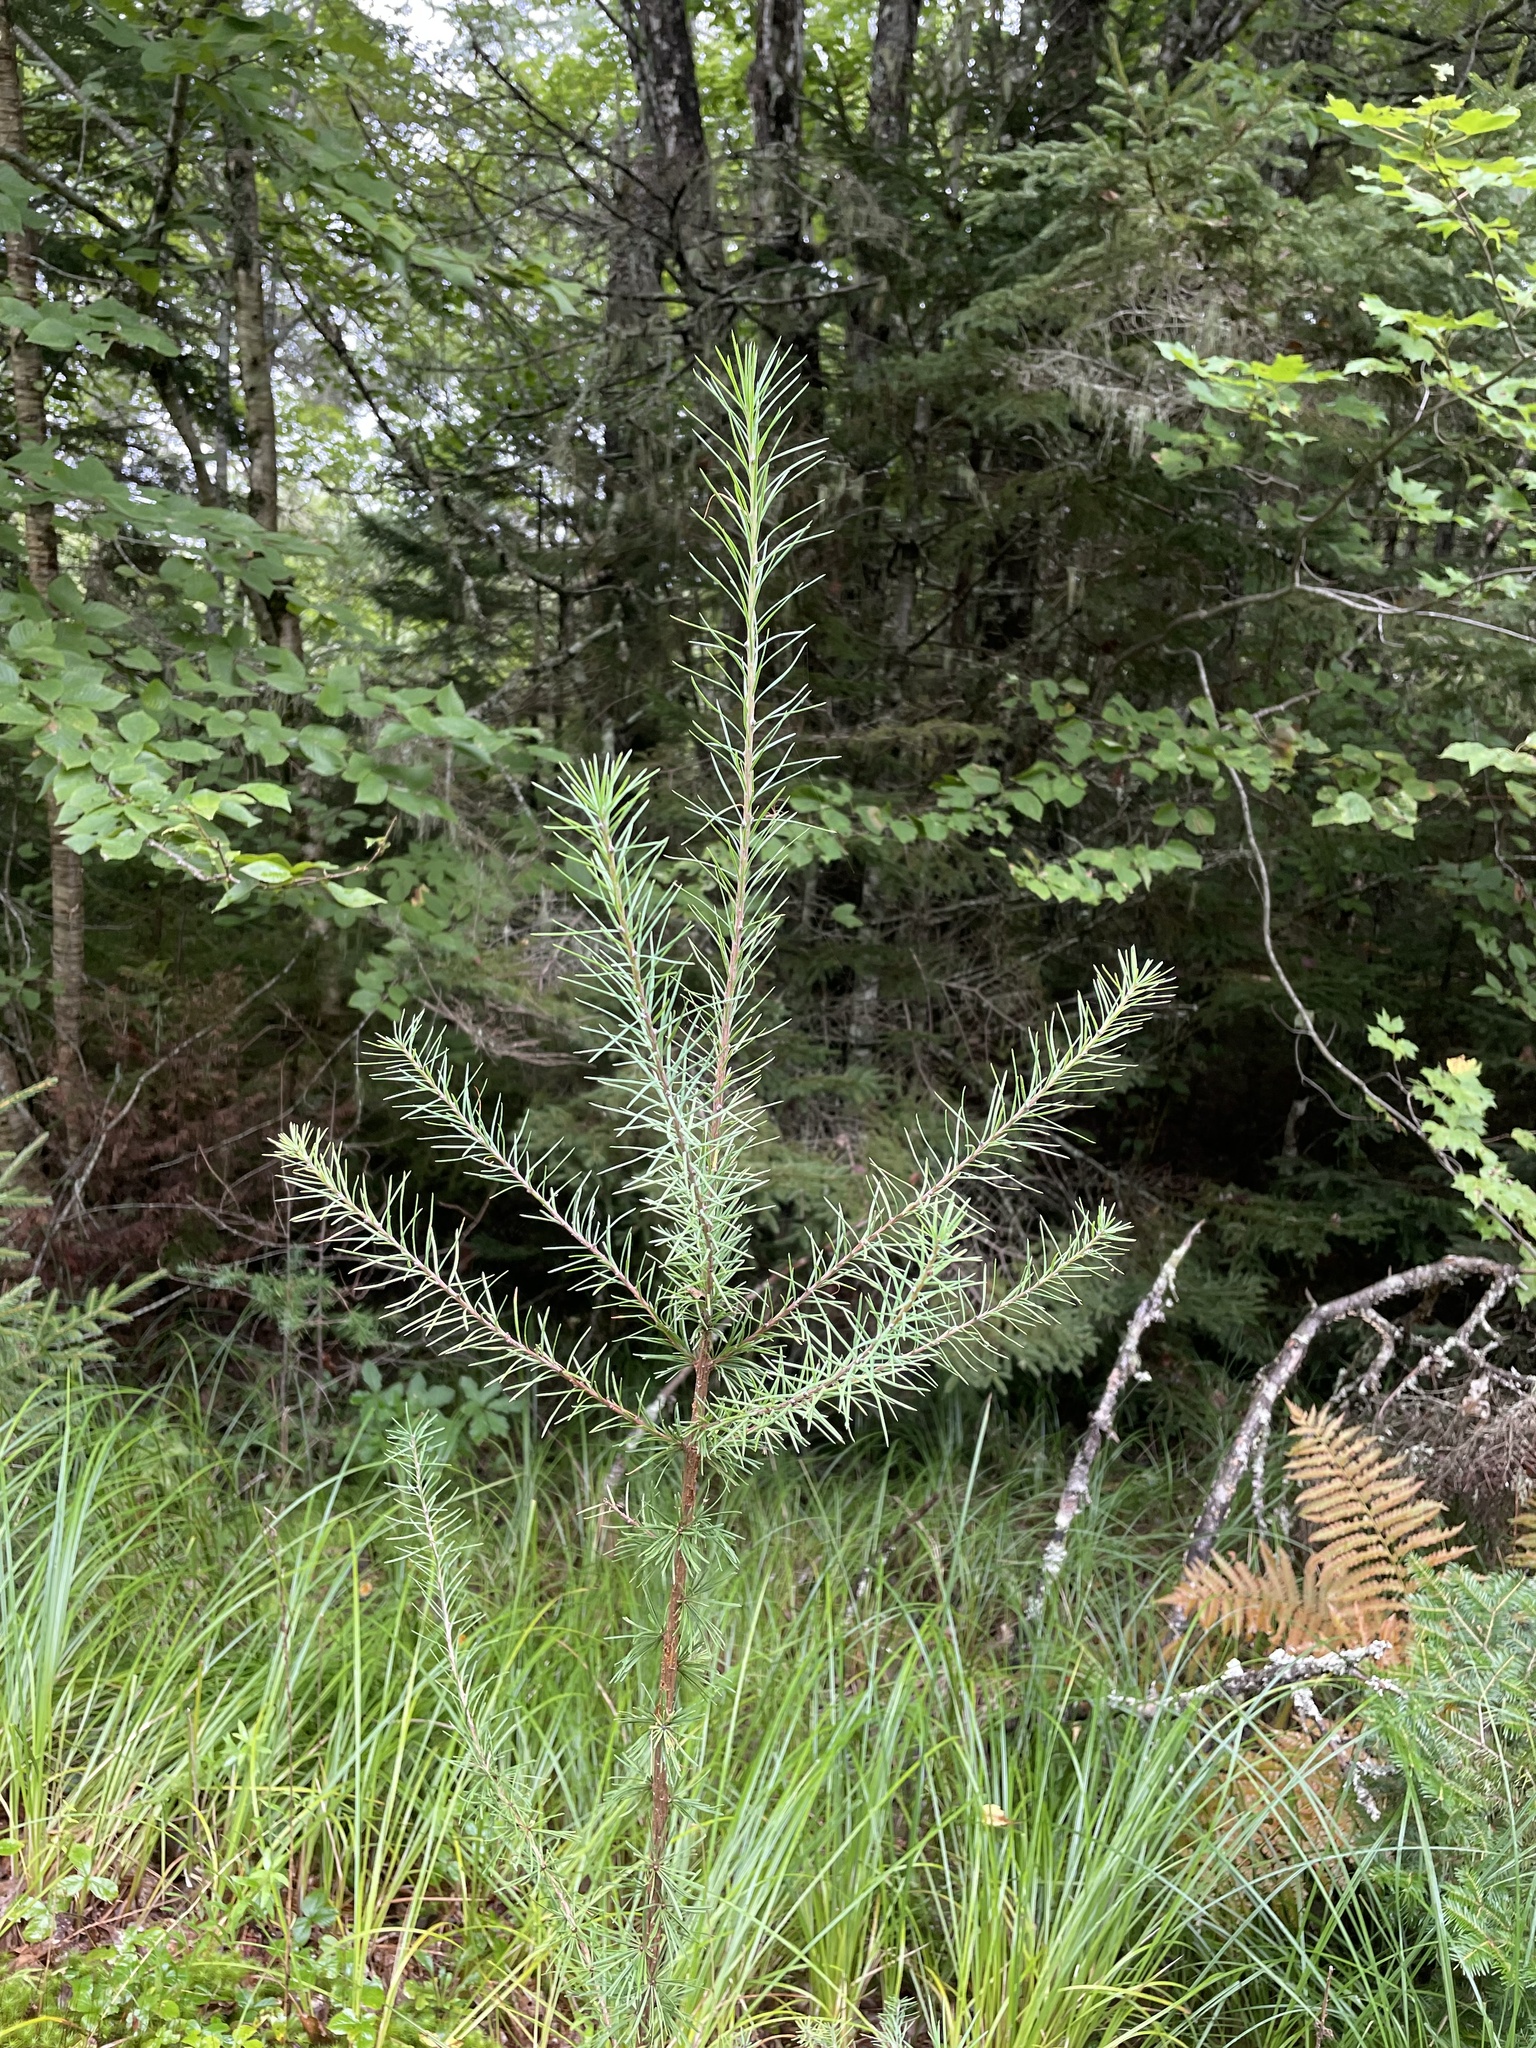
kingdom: Plantae
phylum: Tracheophyta
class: Pinopsida
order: Pinales
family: Pinaceae
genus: Larix
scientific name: Larix laricina
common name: American larch
